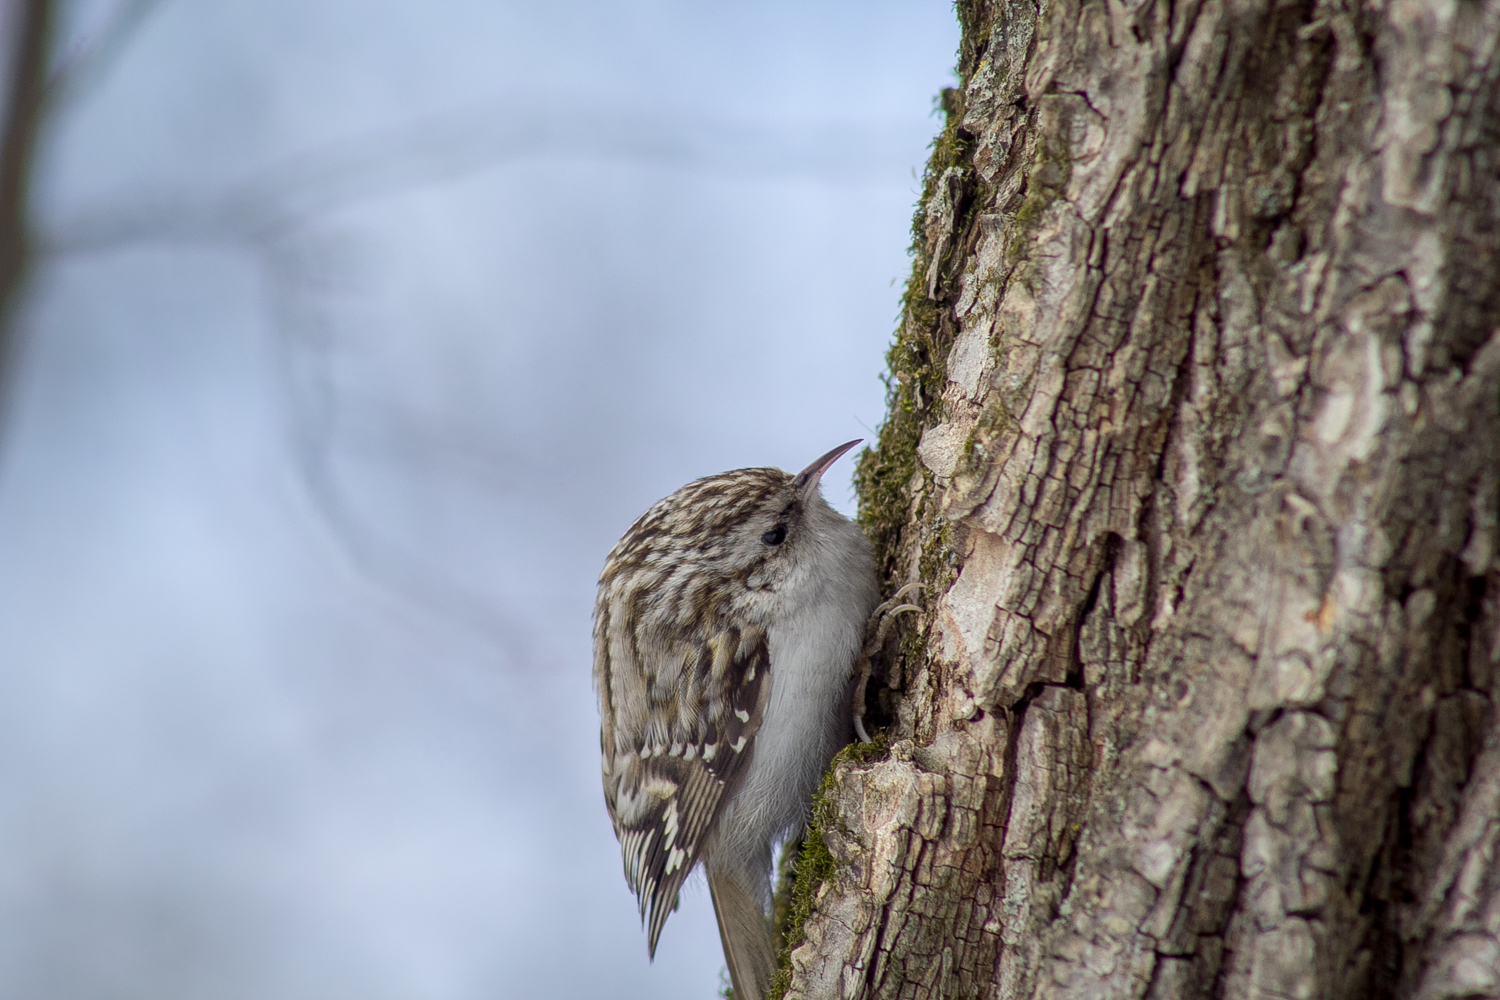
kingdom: Animalia
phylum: Chordata
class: Aves
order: Passeriformes
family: Certhiidae
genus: Certhia
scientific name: Certhia familiaris
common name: Eurasian treecreeper
